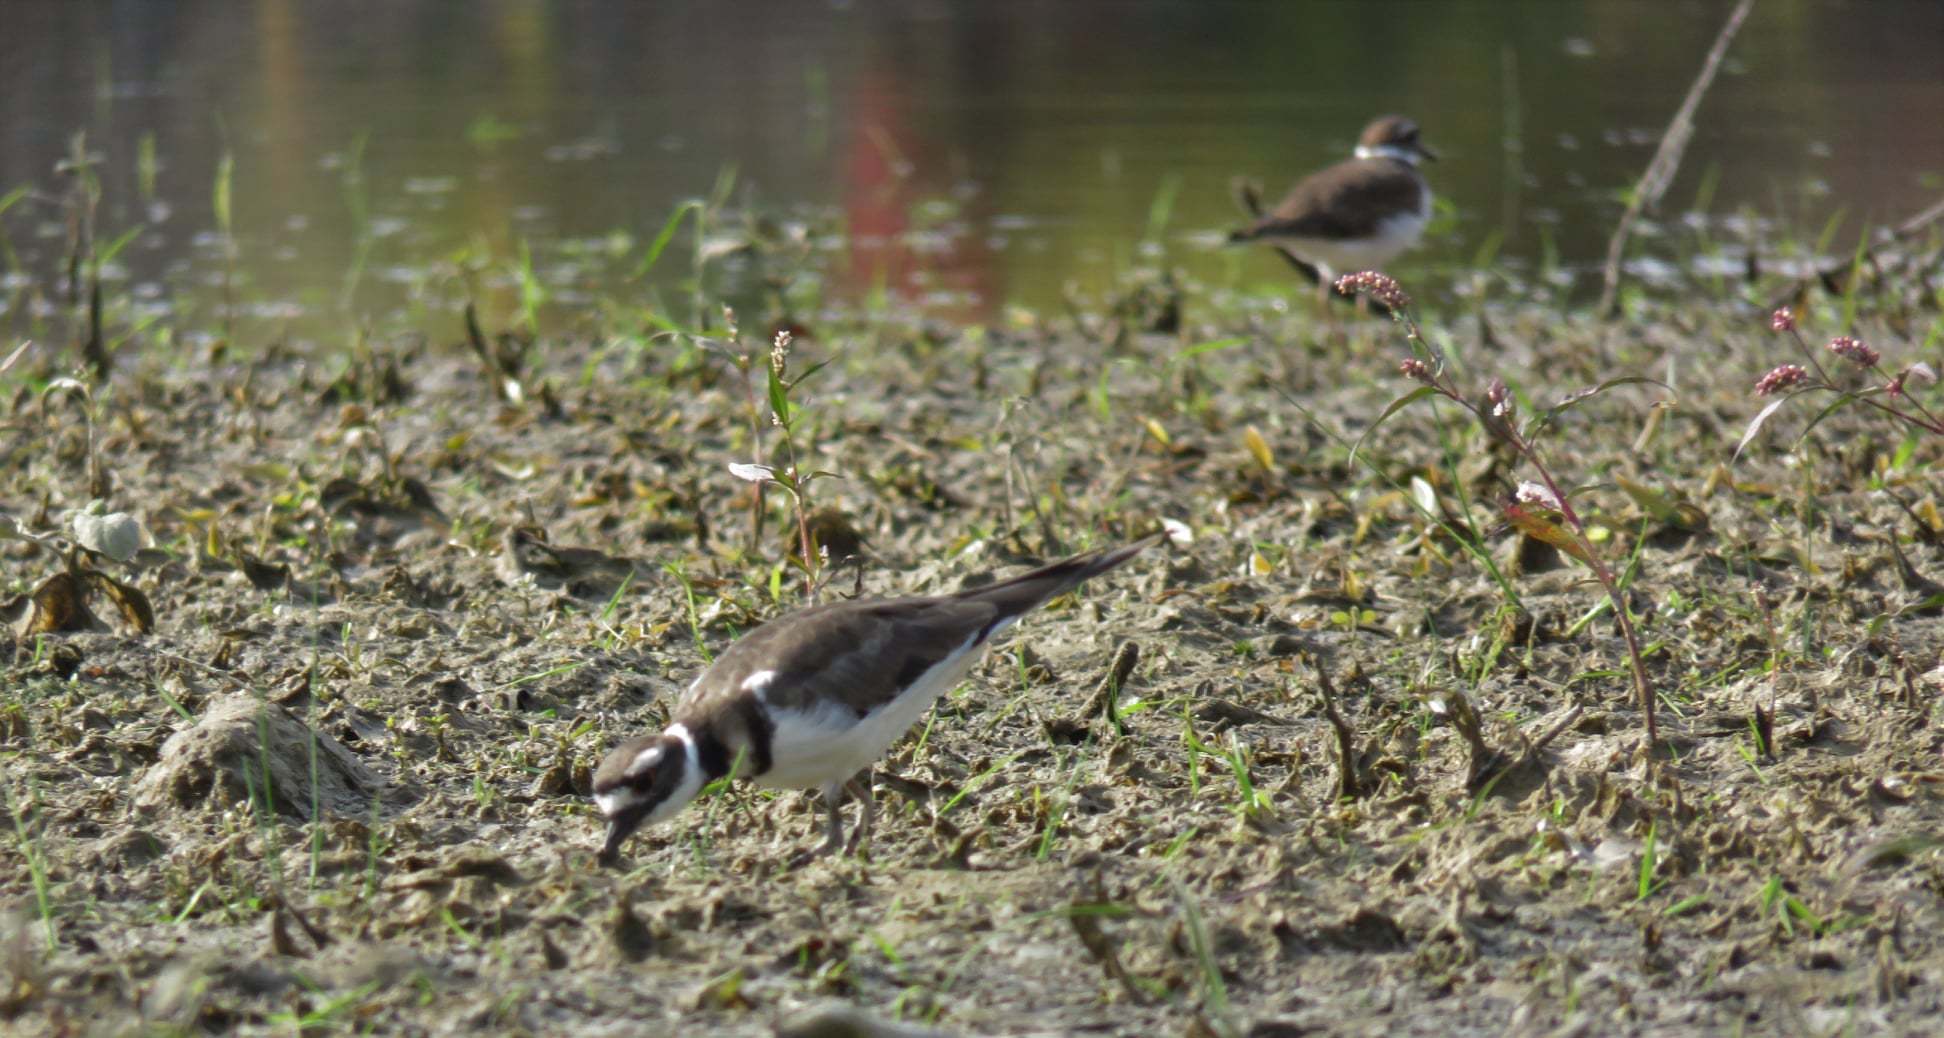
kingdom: Animalia
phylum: Chordata
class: Aves
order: Charadriiformes
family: Charadriidae
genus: Charadrius
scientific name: Charadrius vociferus
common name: Killdeer
